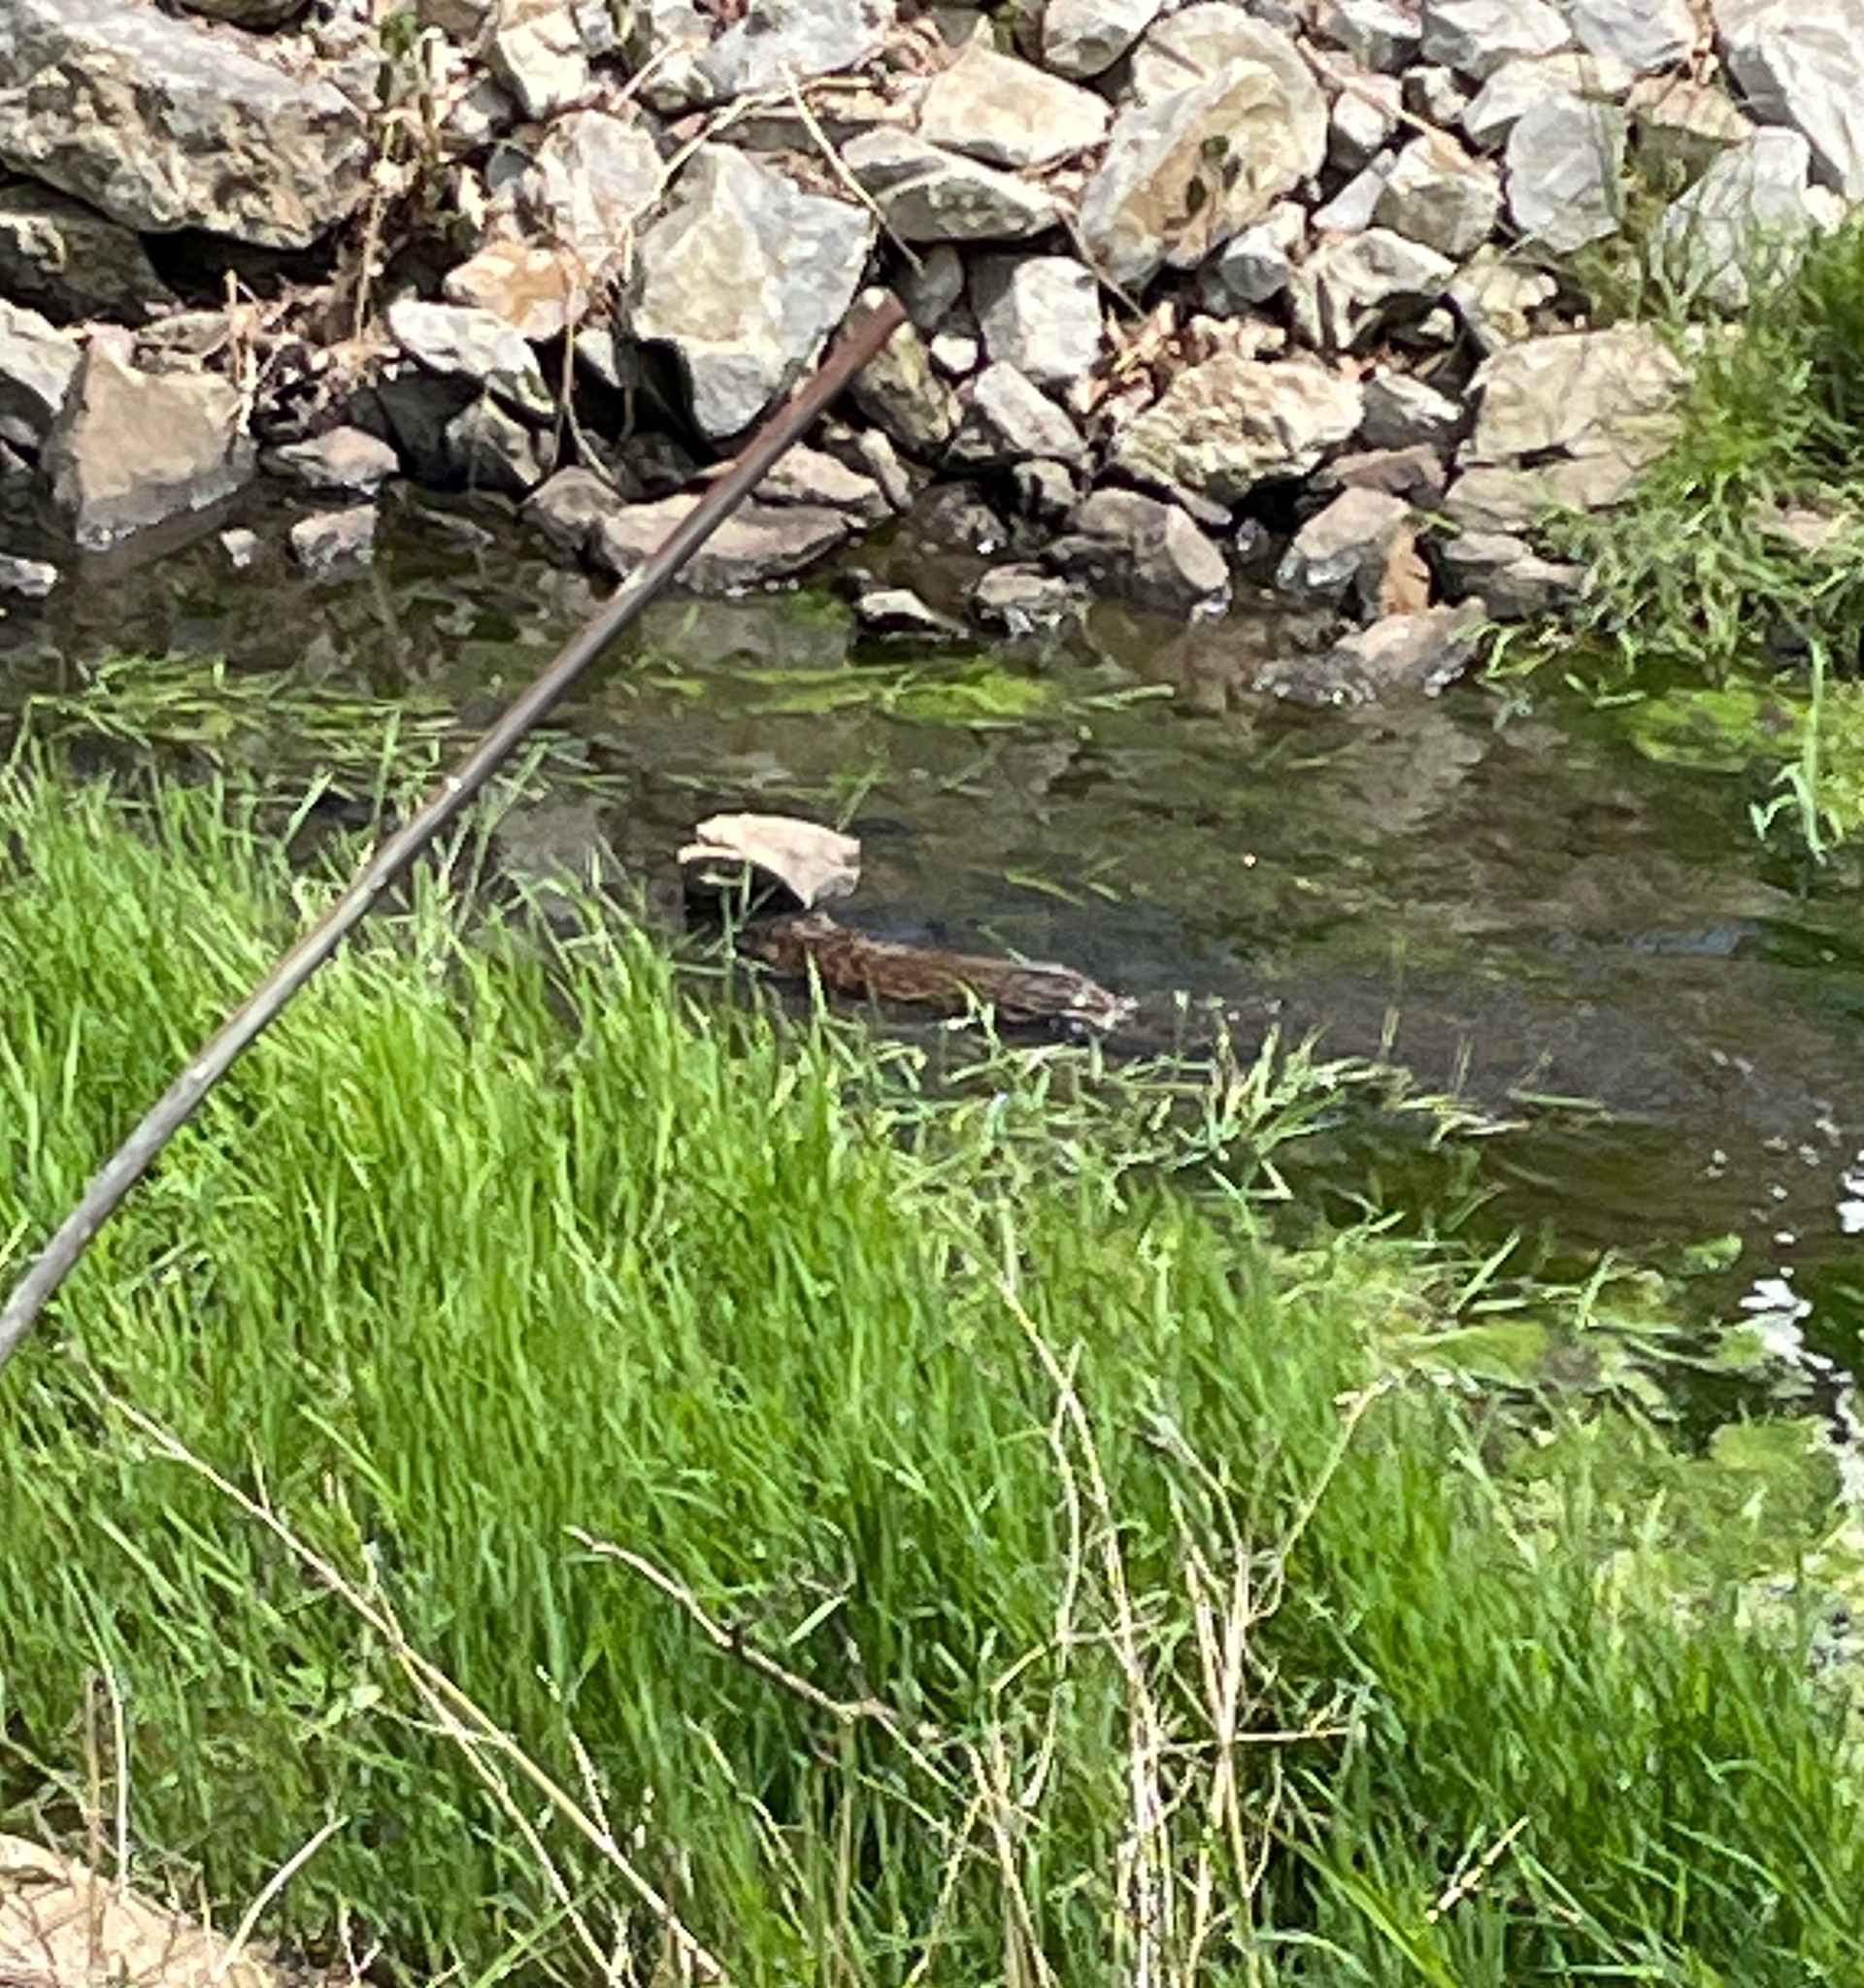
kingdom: Animalia
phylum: Chordata
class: Mammalia
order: Rodentia
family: Cricetidae
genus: Ondatra
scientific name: Ondatra zibethicus
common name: Muskrat
